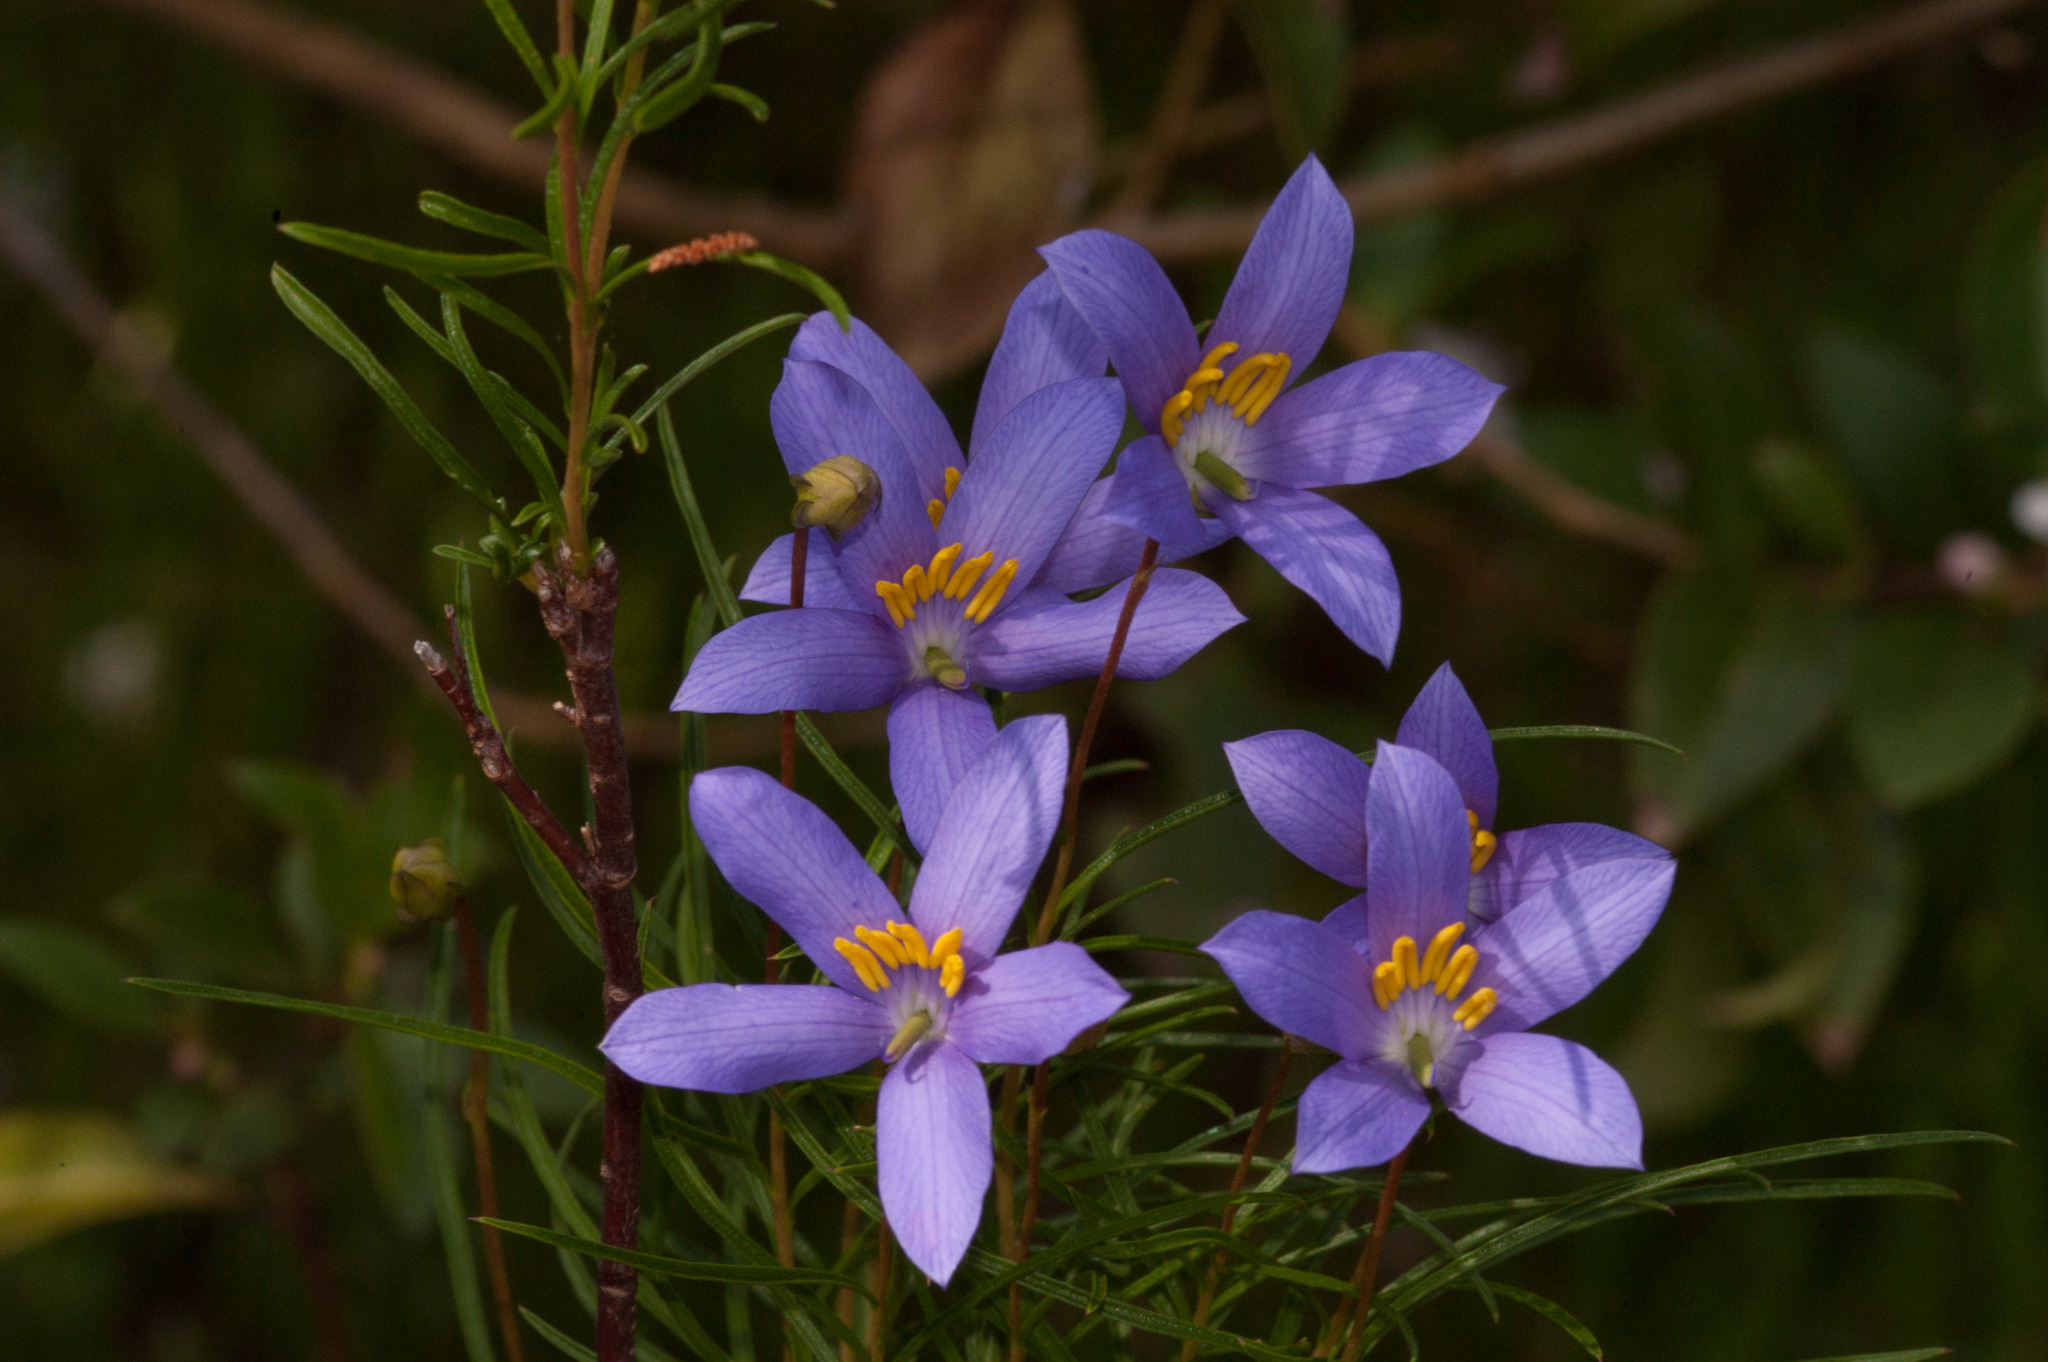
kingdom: Plantae
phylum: Tracheophyta
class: Magnoliopsida
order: Apiales
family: Pittosporaceae
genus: Cheiranthera
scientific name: Cheiranthera alternifolia
